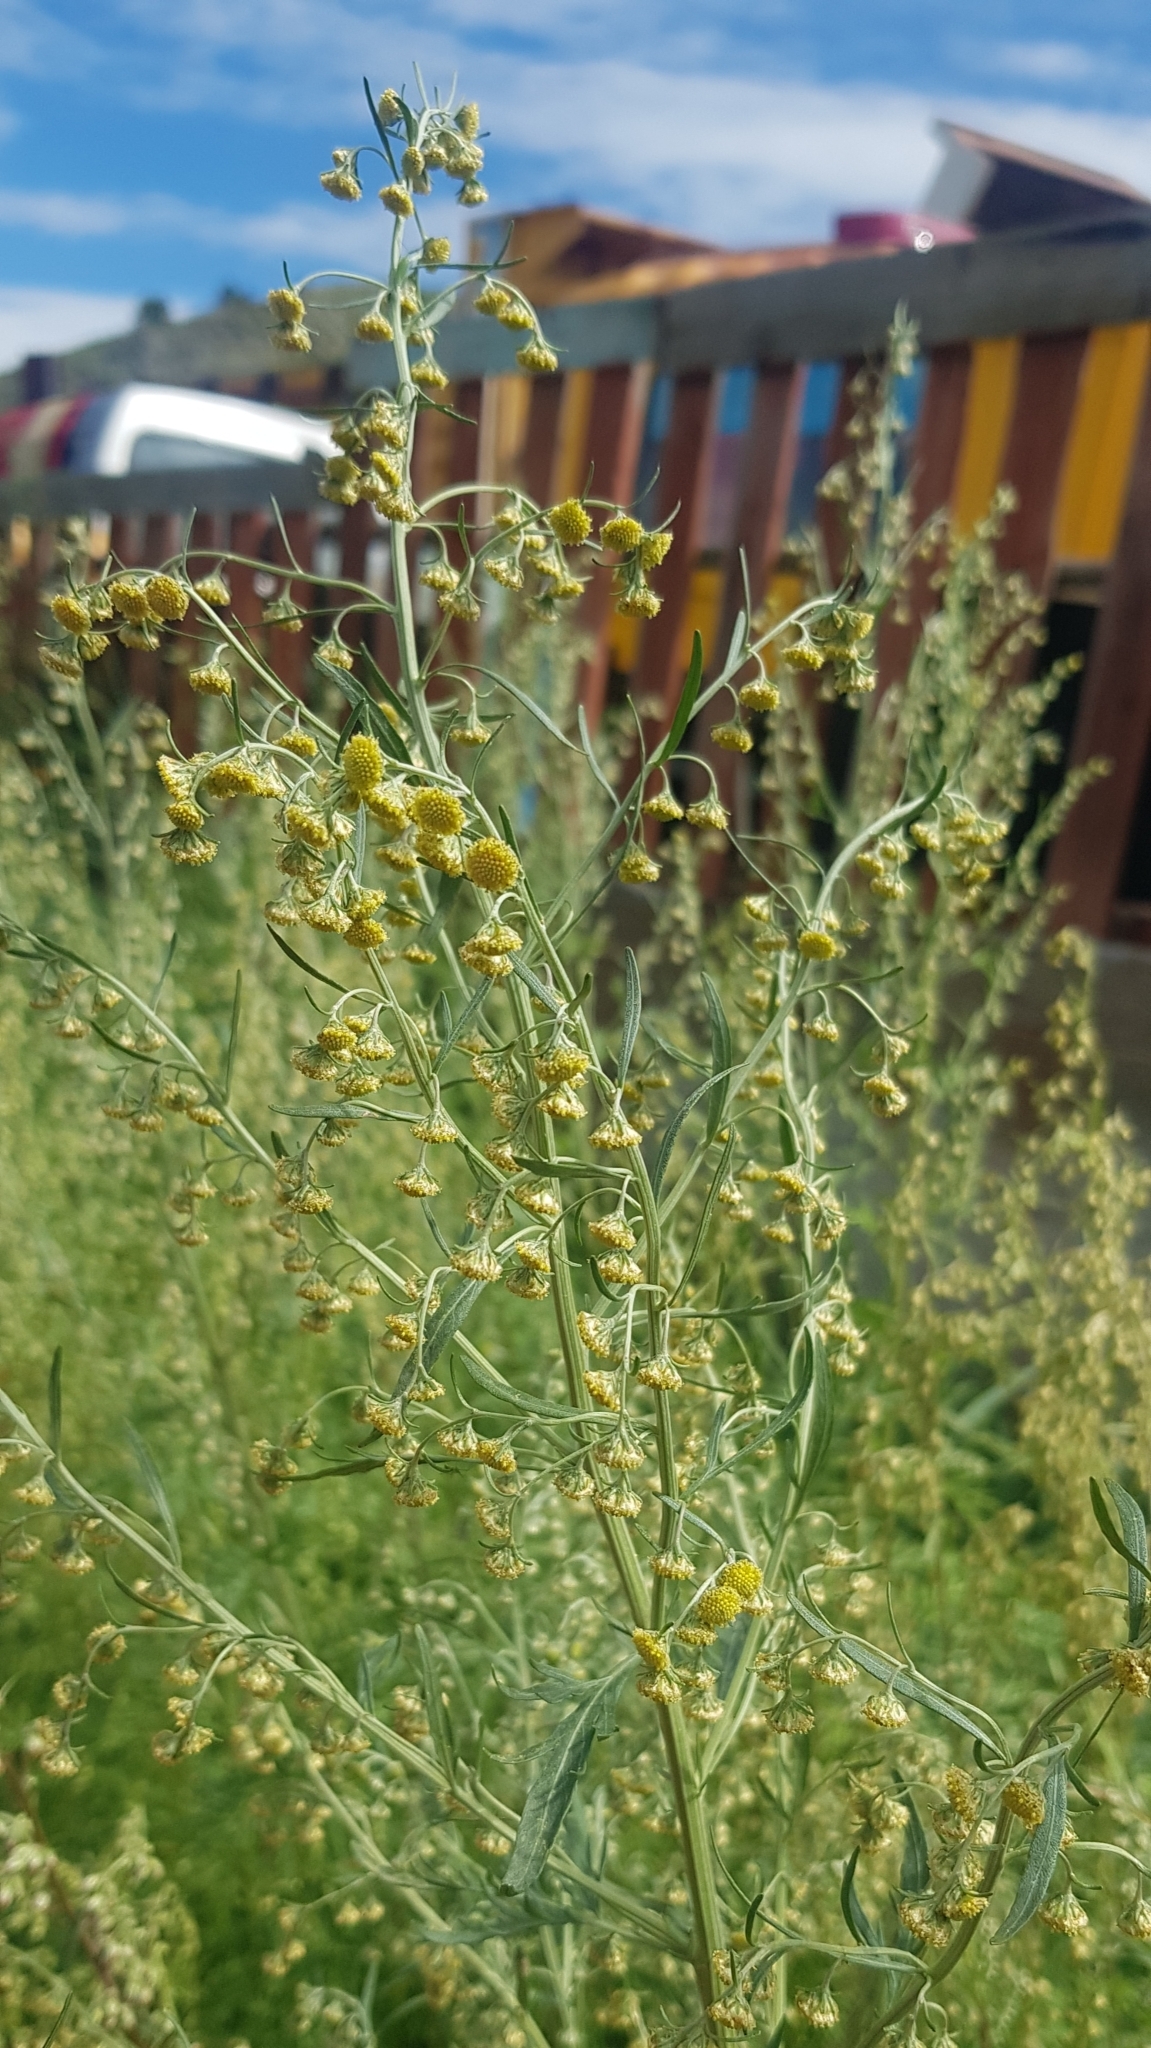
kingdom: Plantae
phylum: Tracheophyta
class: Magnoliopsida
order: Asterales
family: Asteraceae
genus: Artemisia
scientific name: Artemisia macrocephala
